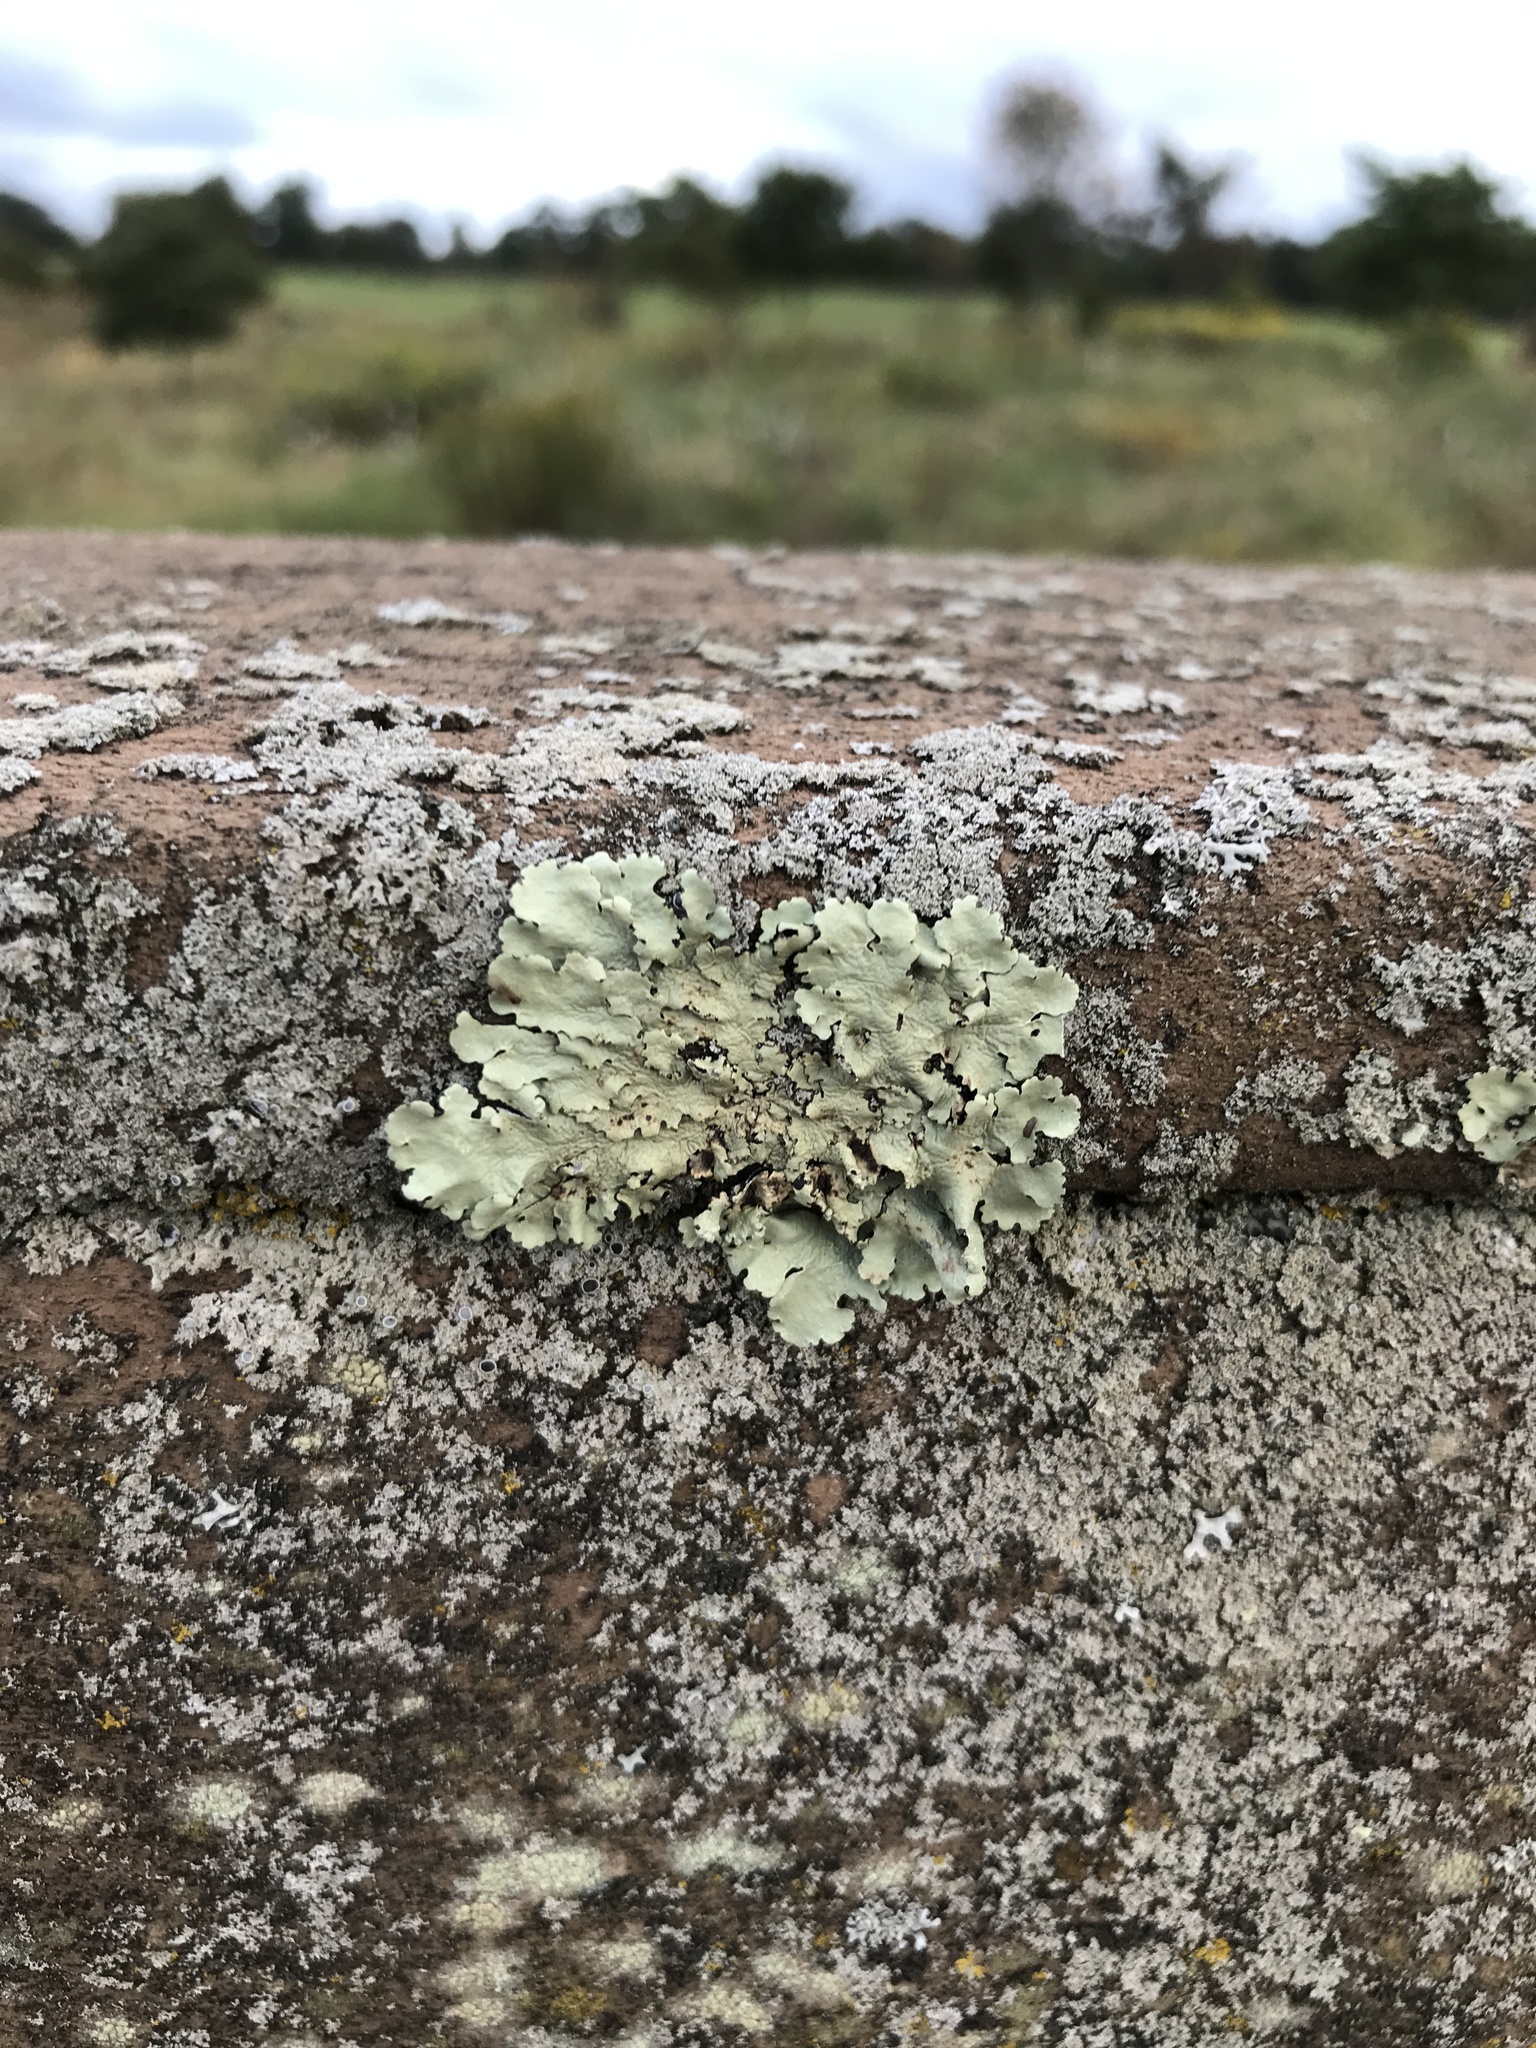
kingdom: Fungi
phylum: Ascomycota
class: Lecanoromycetes
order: Lecanorales
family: Parmeliaceae
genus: Flavoparmelia
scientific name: Flavoparmelia caperata
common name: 40-mile per hour lichen
